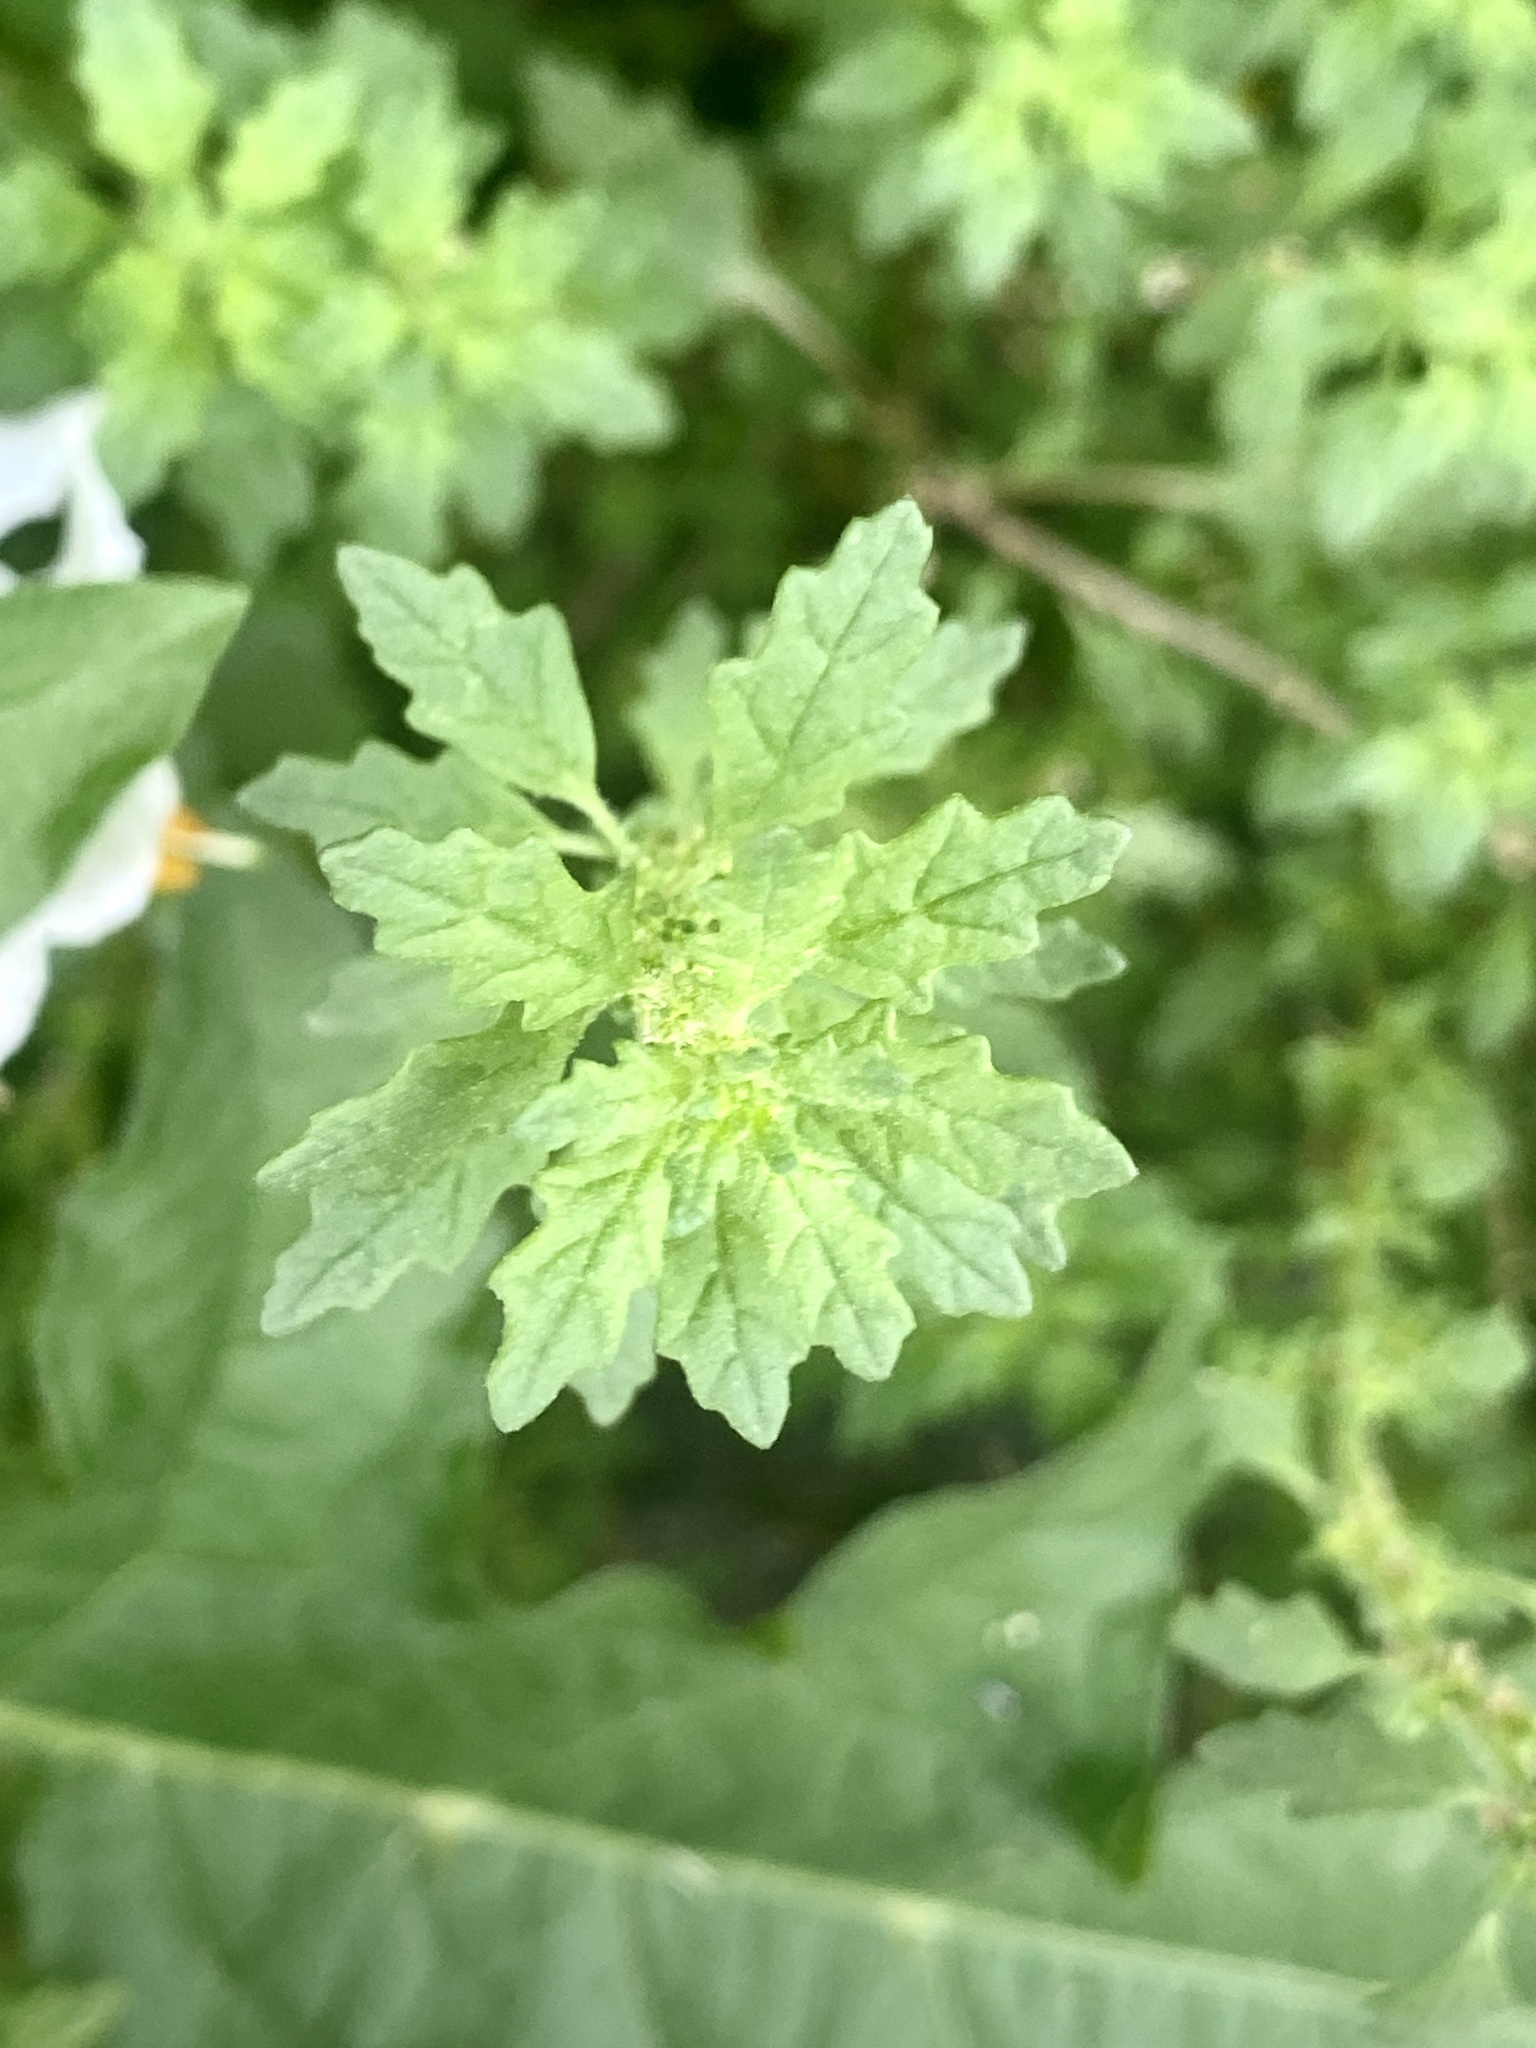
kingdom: Plantae
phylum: Tracheophyta
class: Magnoliopsida
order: Caryophyllales
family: Amaranthaceae
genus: Dysphania
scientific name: Dysphania pumilio
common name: Clammy goosefoot
